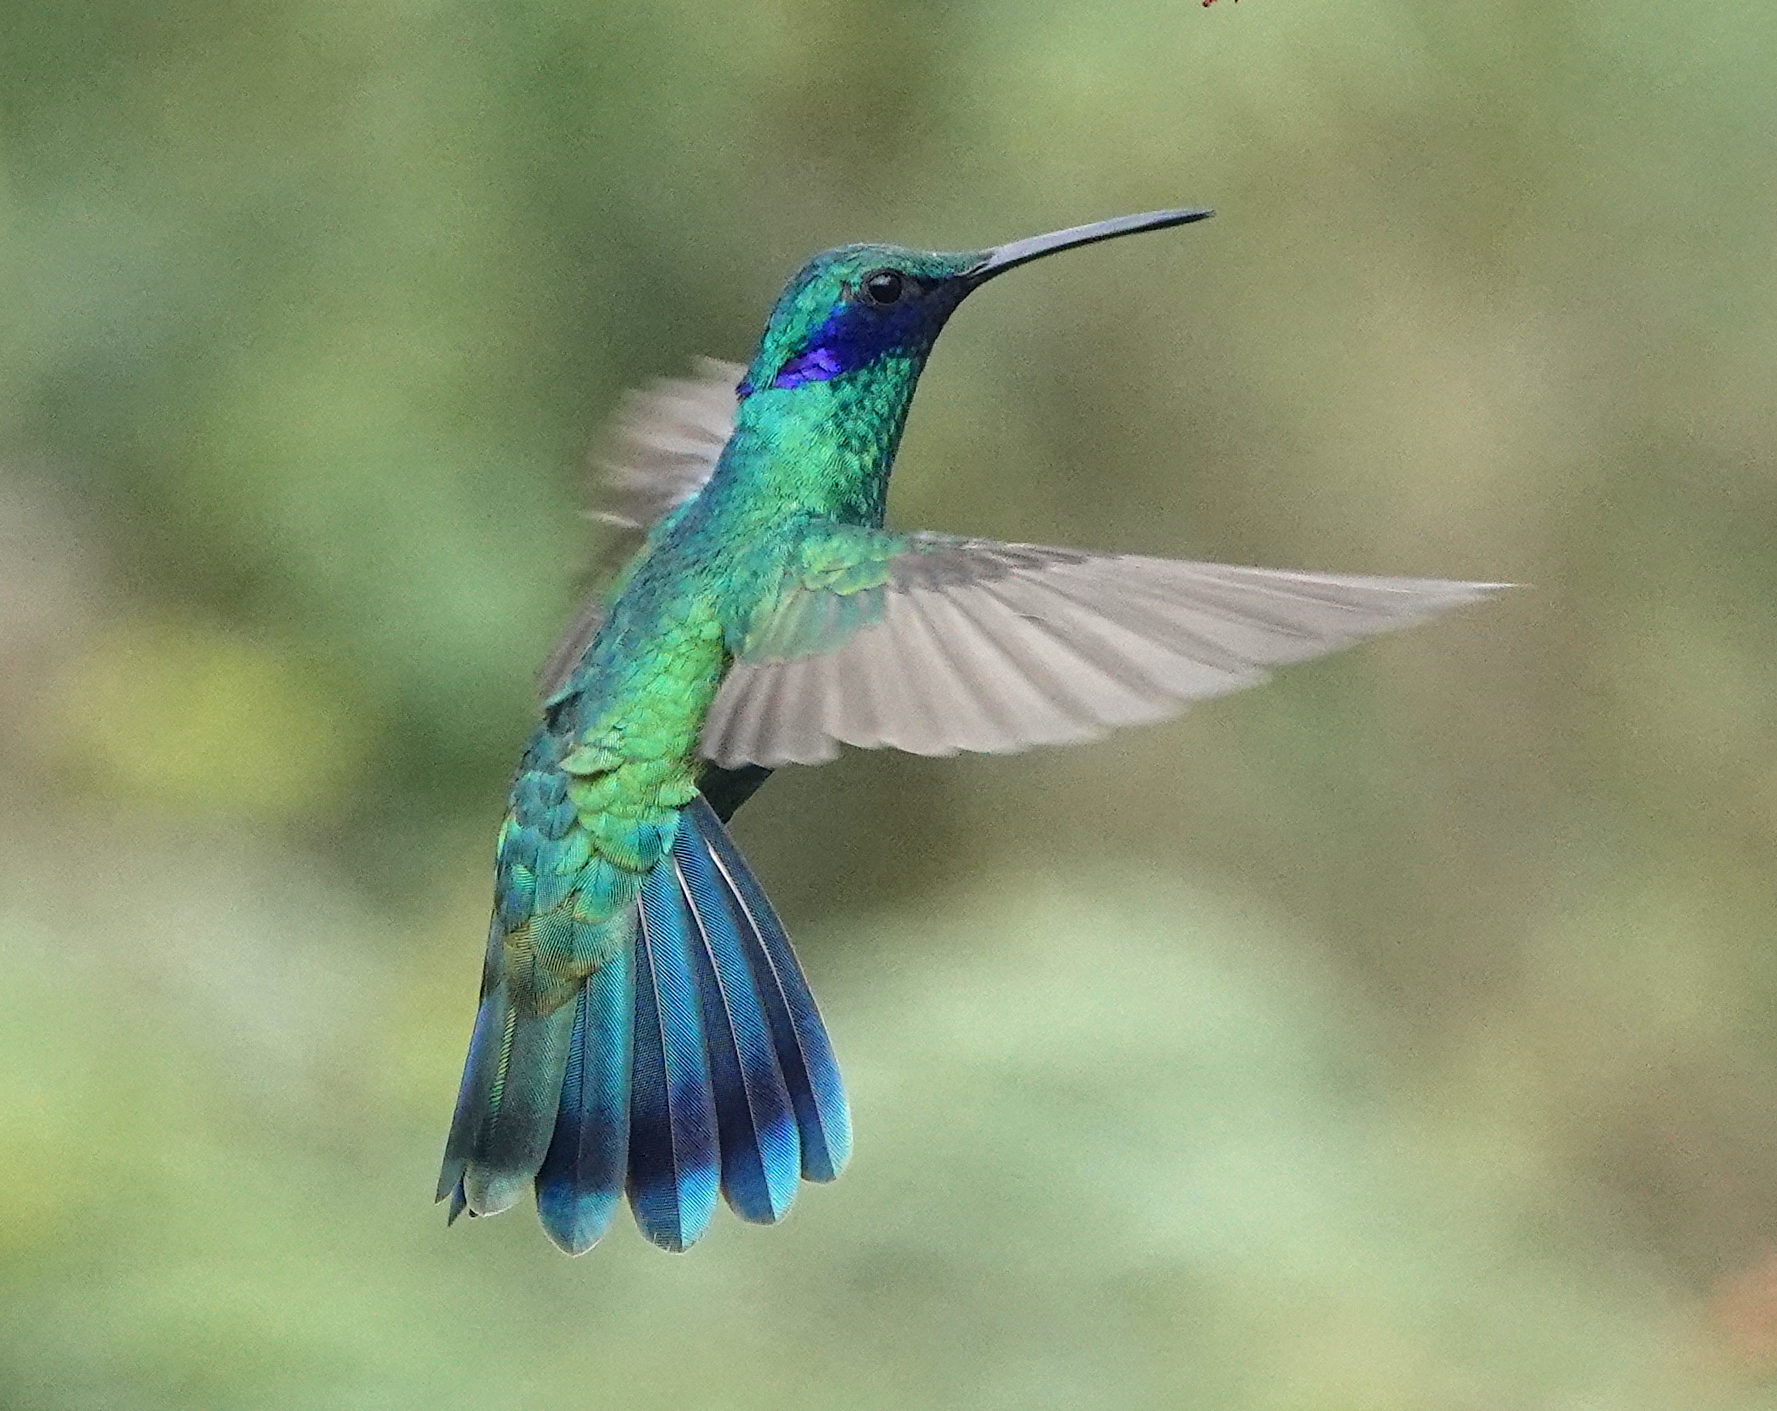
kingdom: Animalia
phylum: Chordata
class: Aves
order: Apodiformes
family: Trochilidae
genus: Colibri
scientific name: Colibri coruscans
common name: Sparkling violetear
